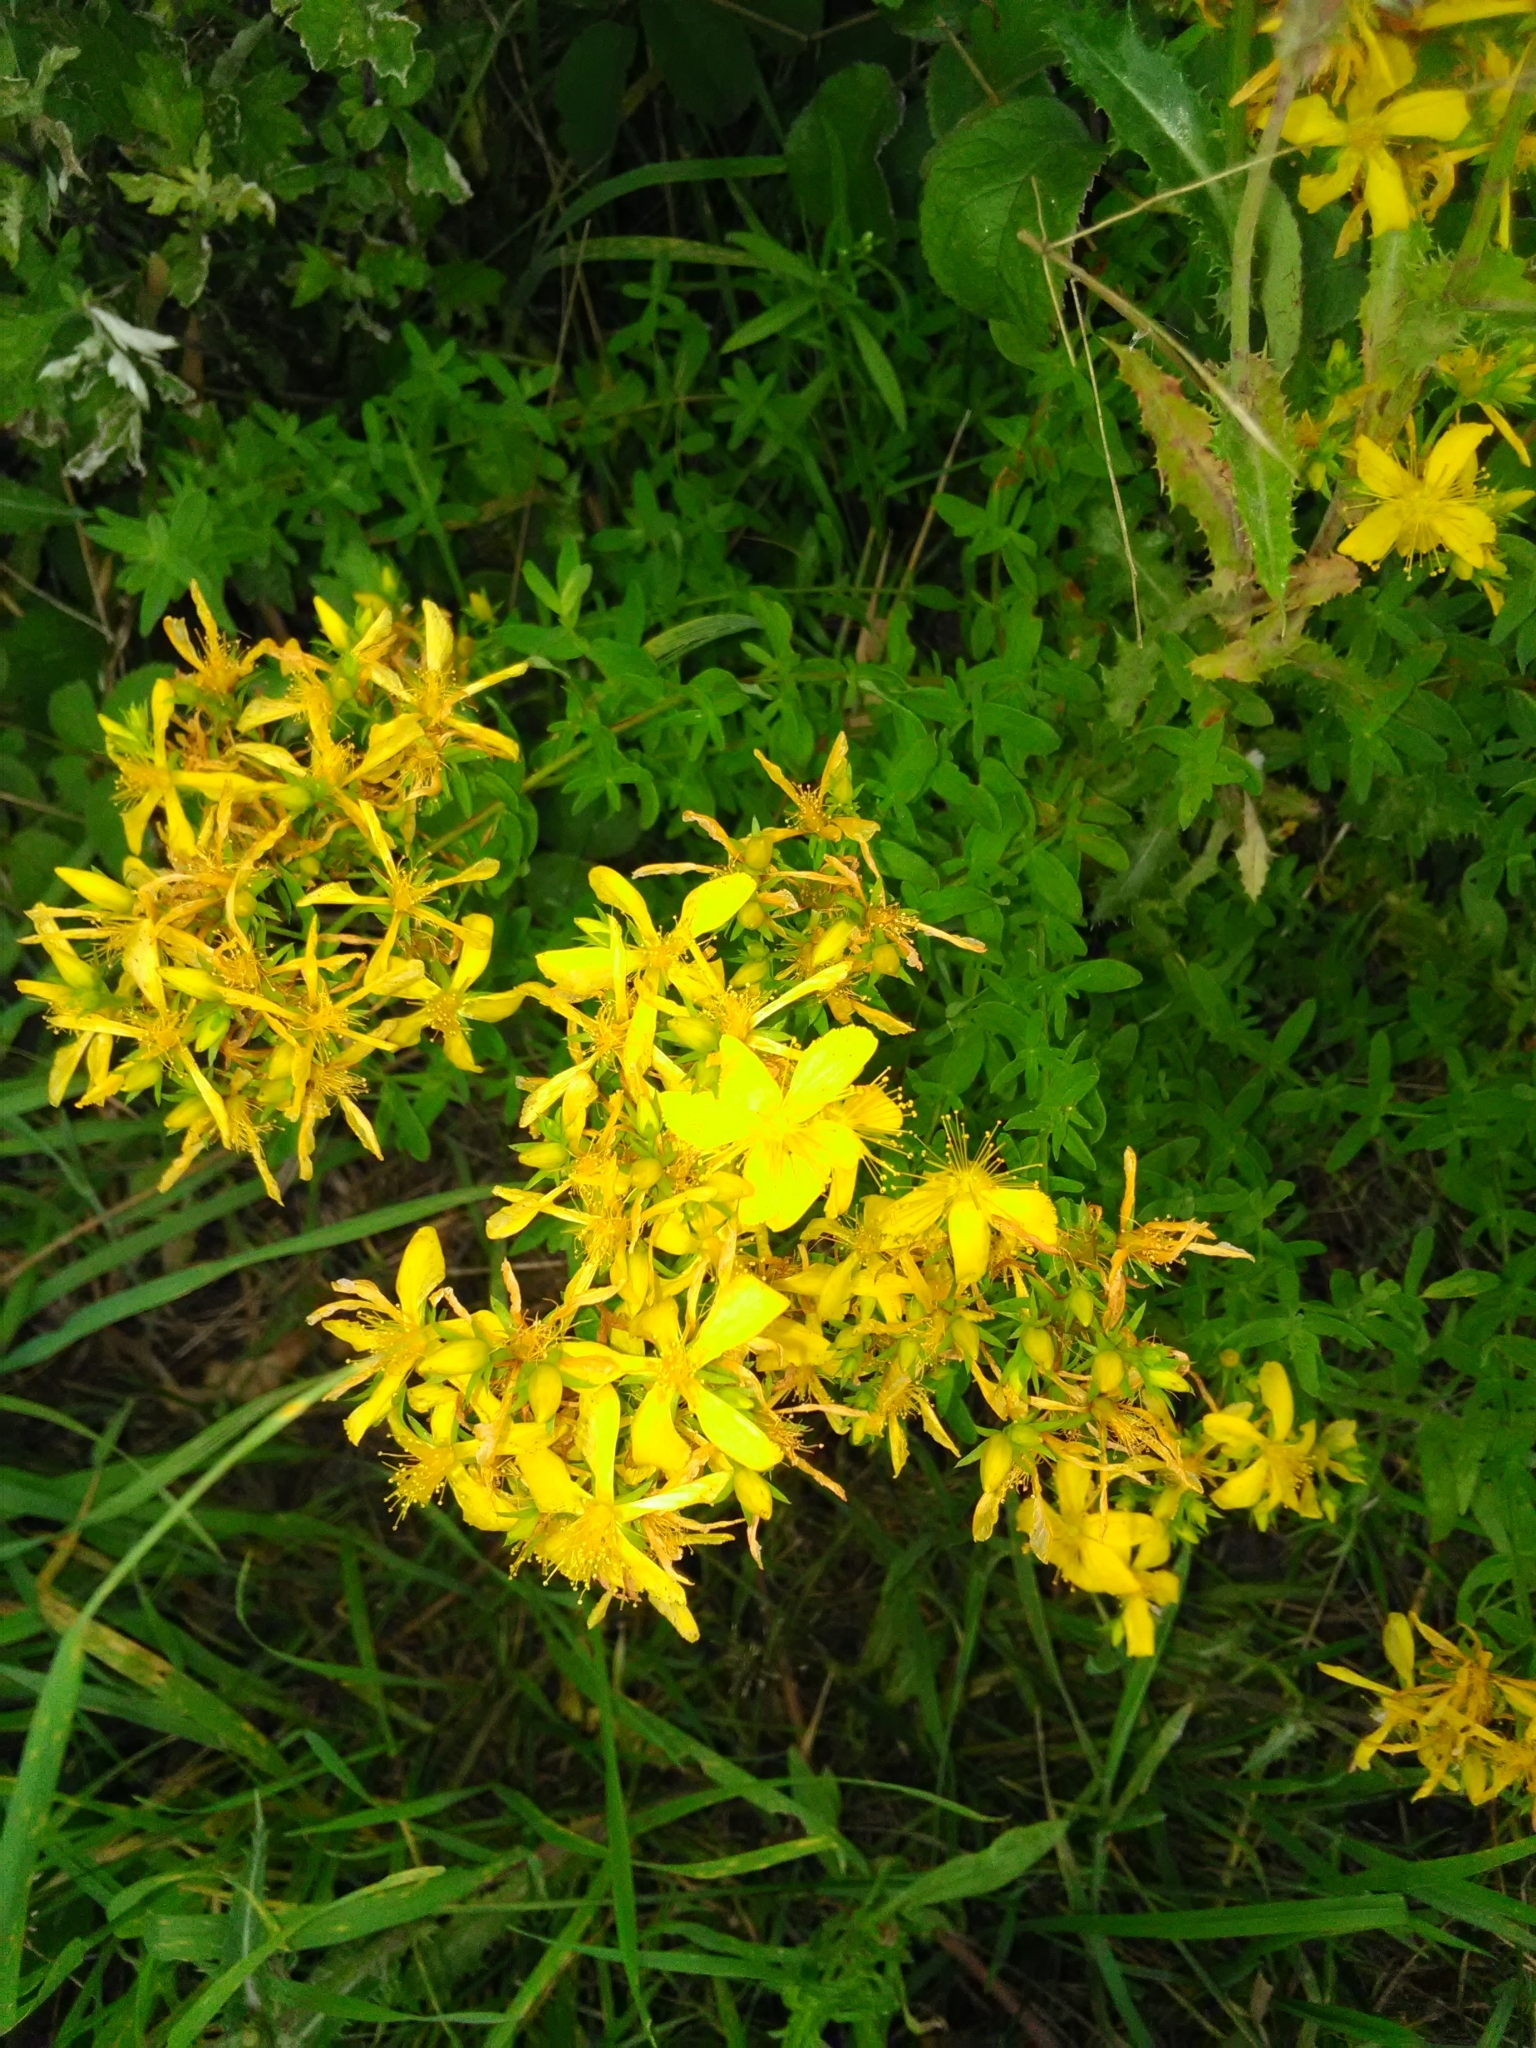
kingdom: Plantae
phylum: Tracheophyta
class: Magnoliopsida
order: Malpighiales
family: Hypericaceae
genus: Hypericum
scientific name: Hypericum perforatum
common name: Common st. johnswort
